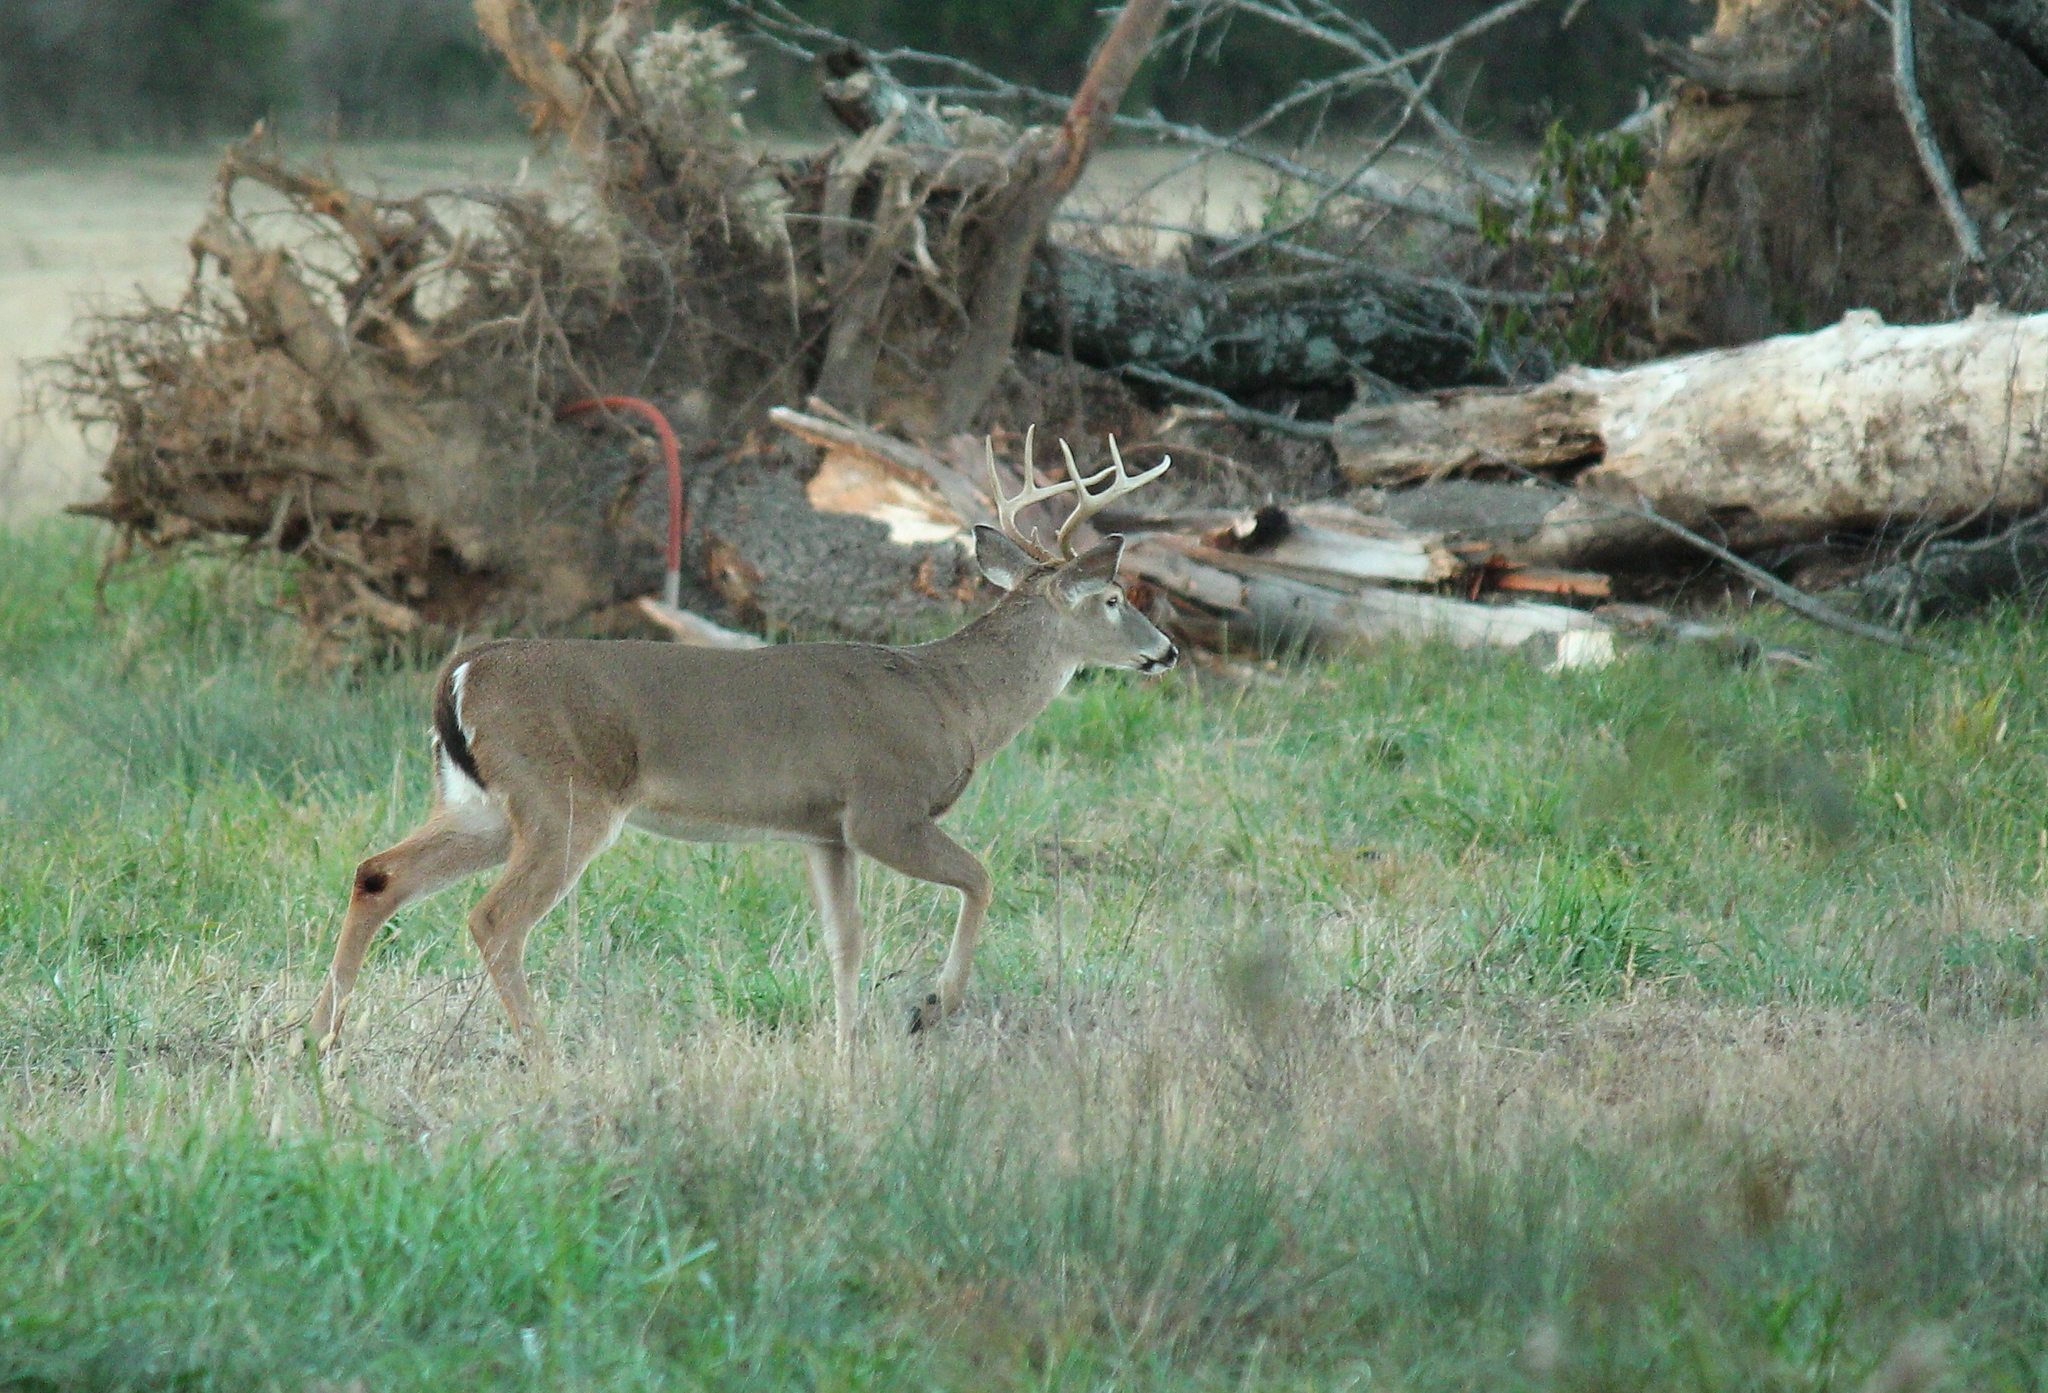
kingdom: Animalia
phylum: Chordata
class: Mammalia
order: Artiodactyla
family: Cervidae
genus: Odocoileus
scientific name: Odocoileus virginianus
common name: White-tailed deer
